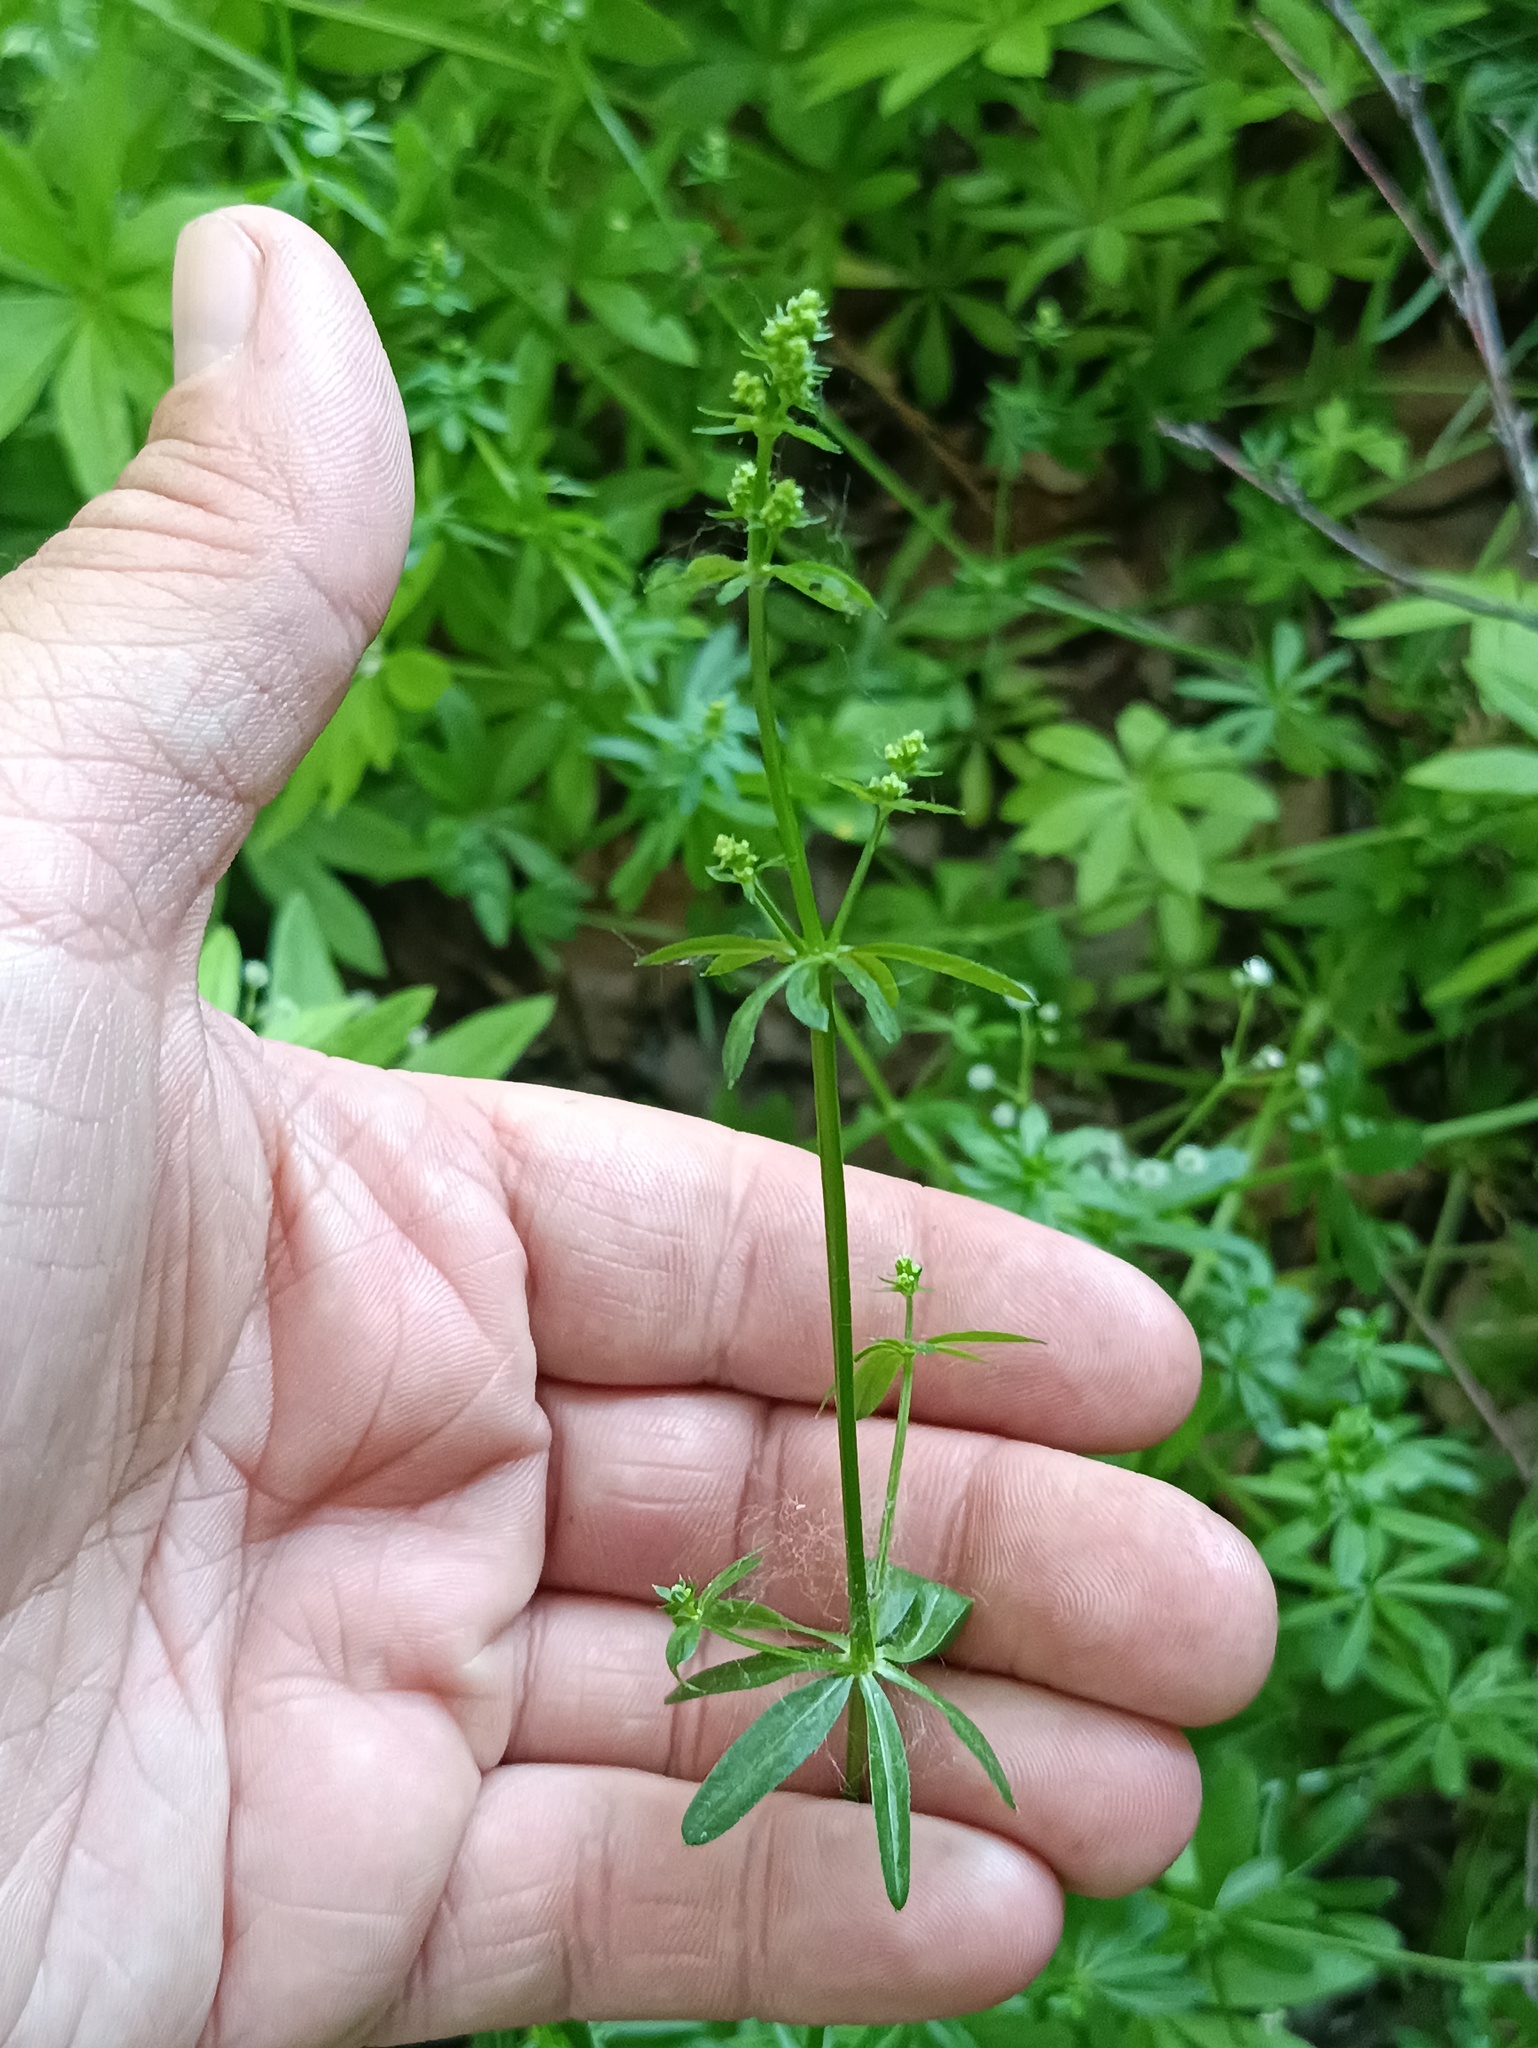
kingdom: Plantae
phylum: Tracheophyta
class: Magnoliopsida
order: Gentianales
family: Rubiaceae
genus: Galium
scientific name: Galium mollugo
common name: Hedge bedstraw
